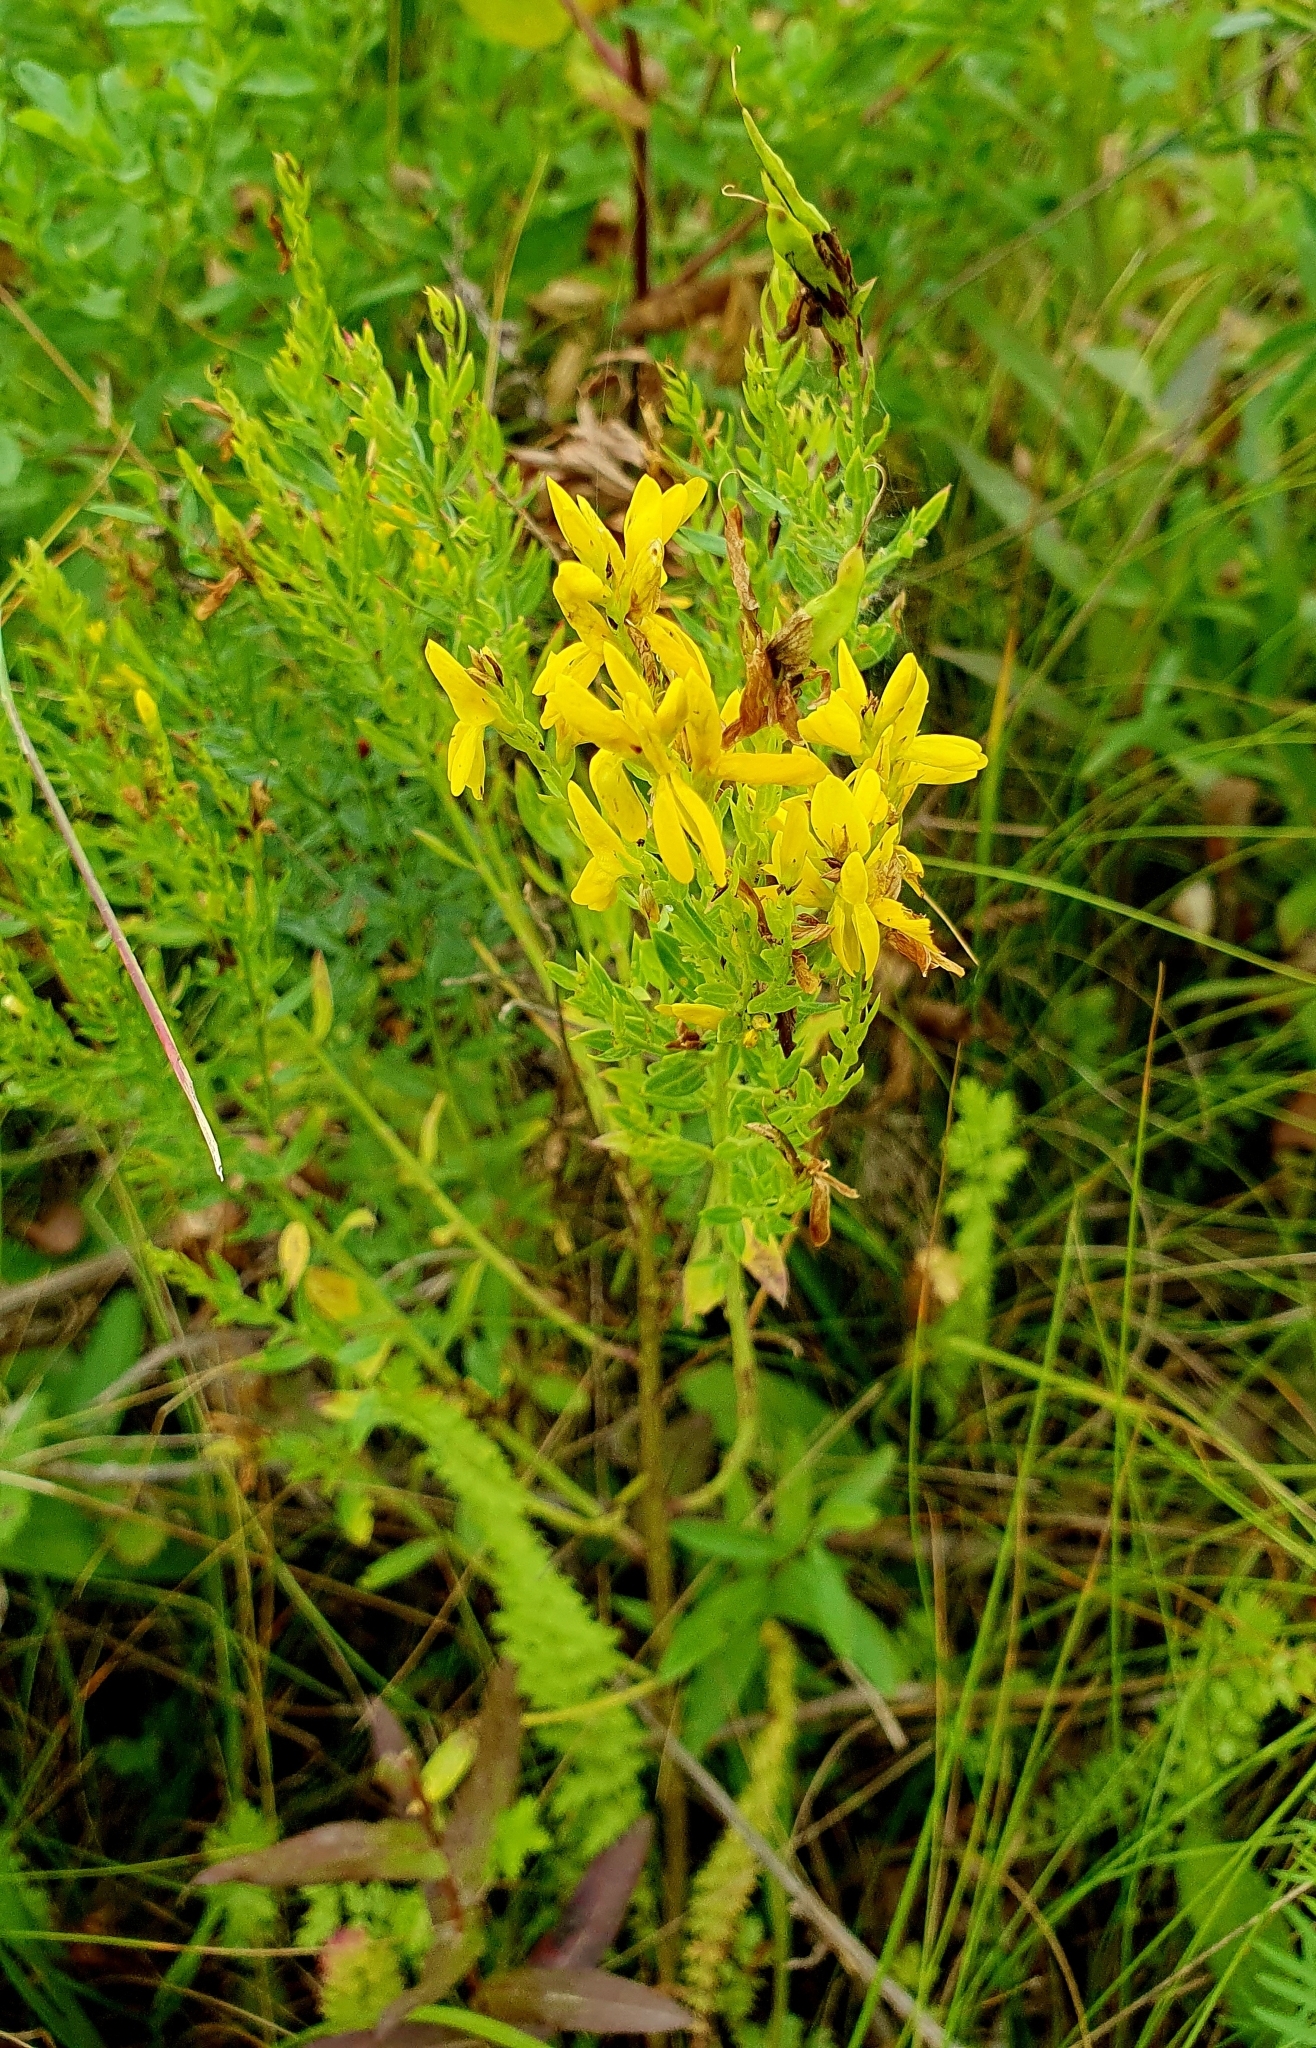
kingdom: Plantae
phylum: Tracheophyta
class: Magnoliopsida
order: Fabales
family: Fabaceae
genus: Genista
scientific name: Genista tinctoria
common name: Dyer's greenweed
